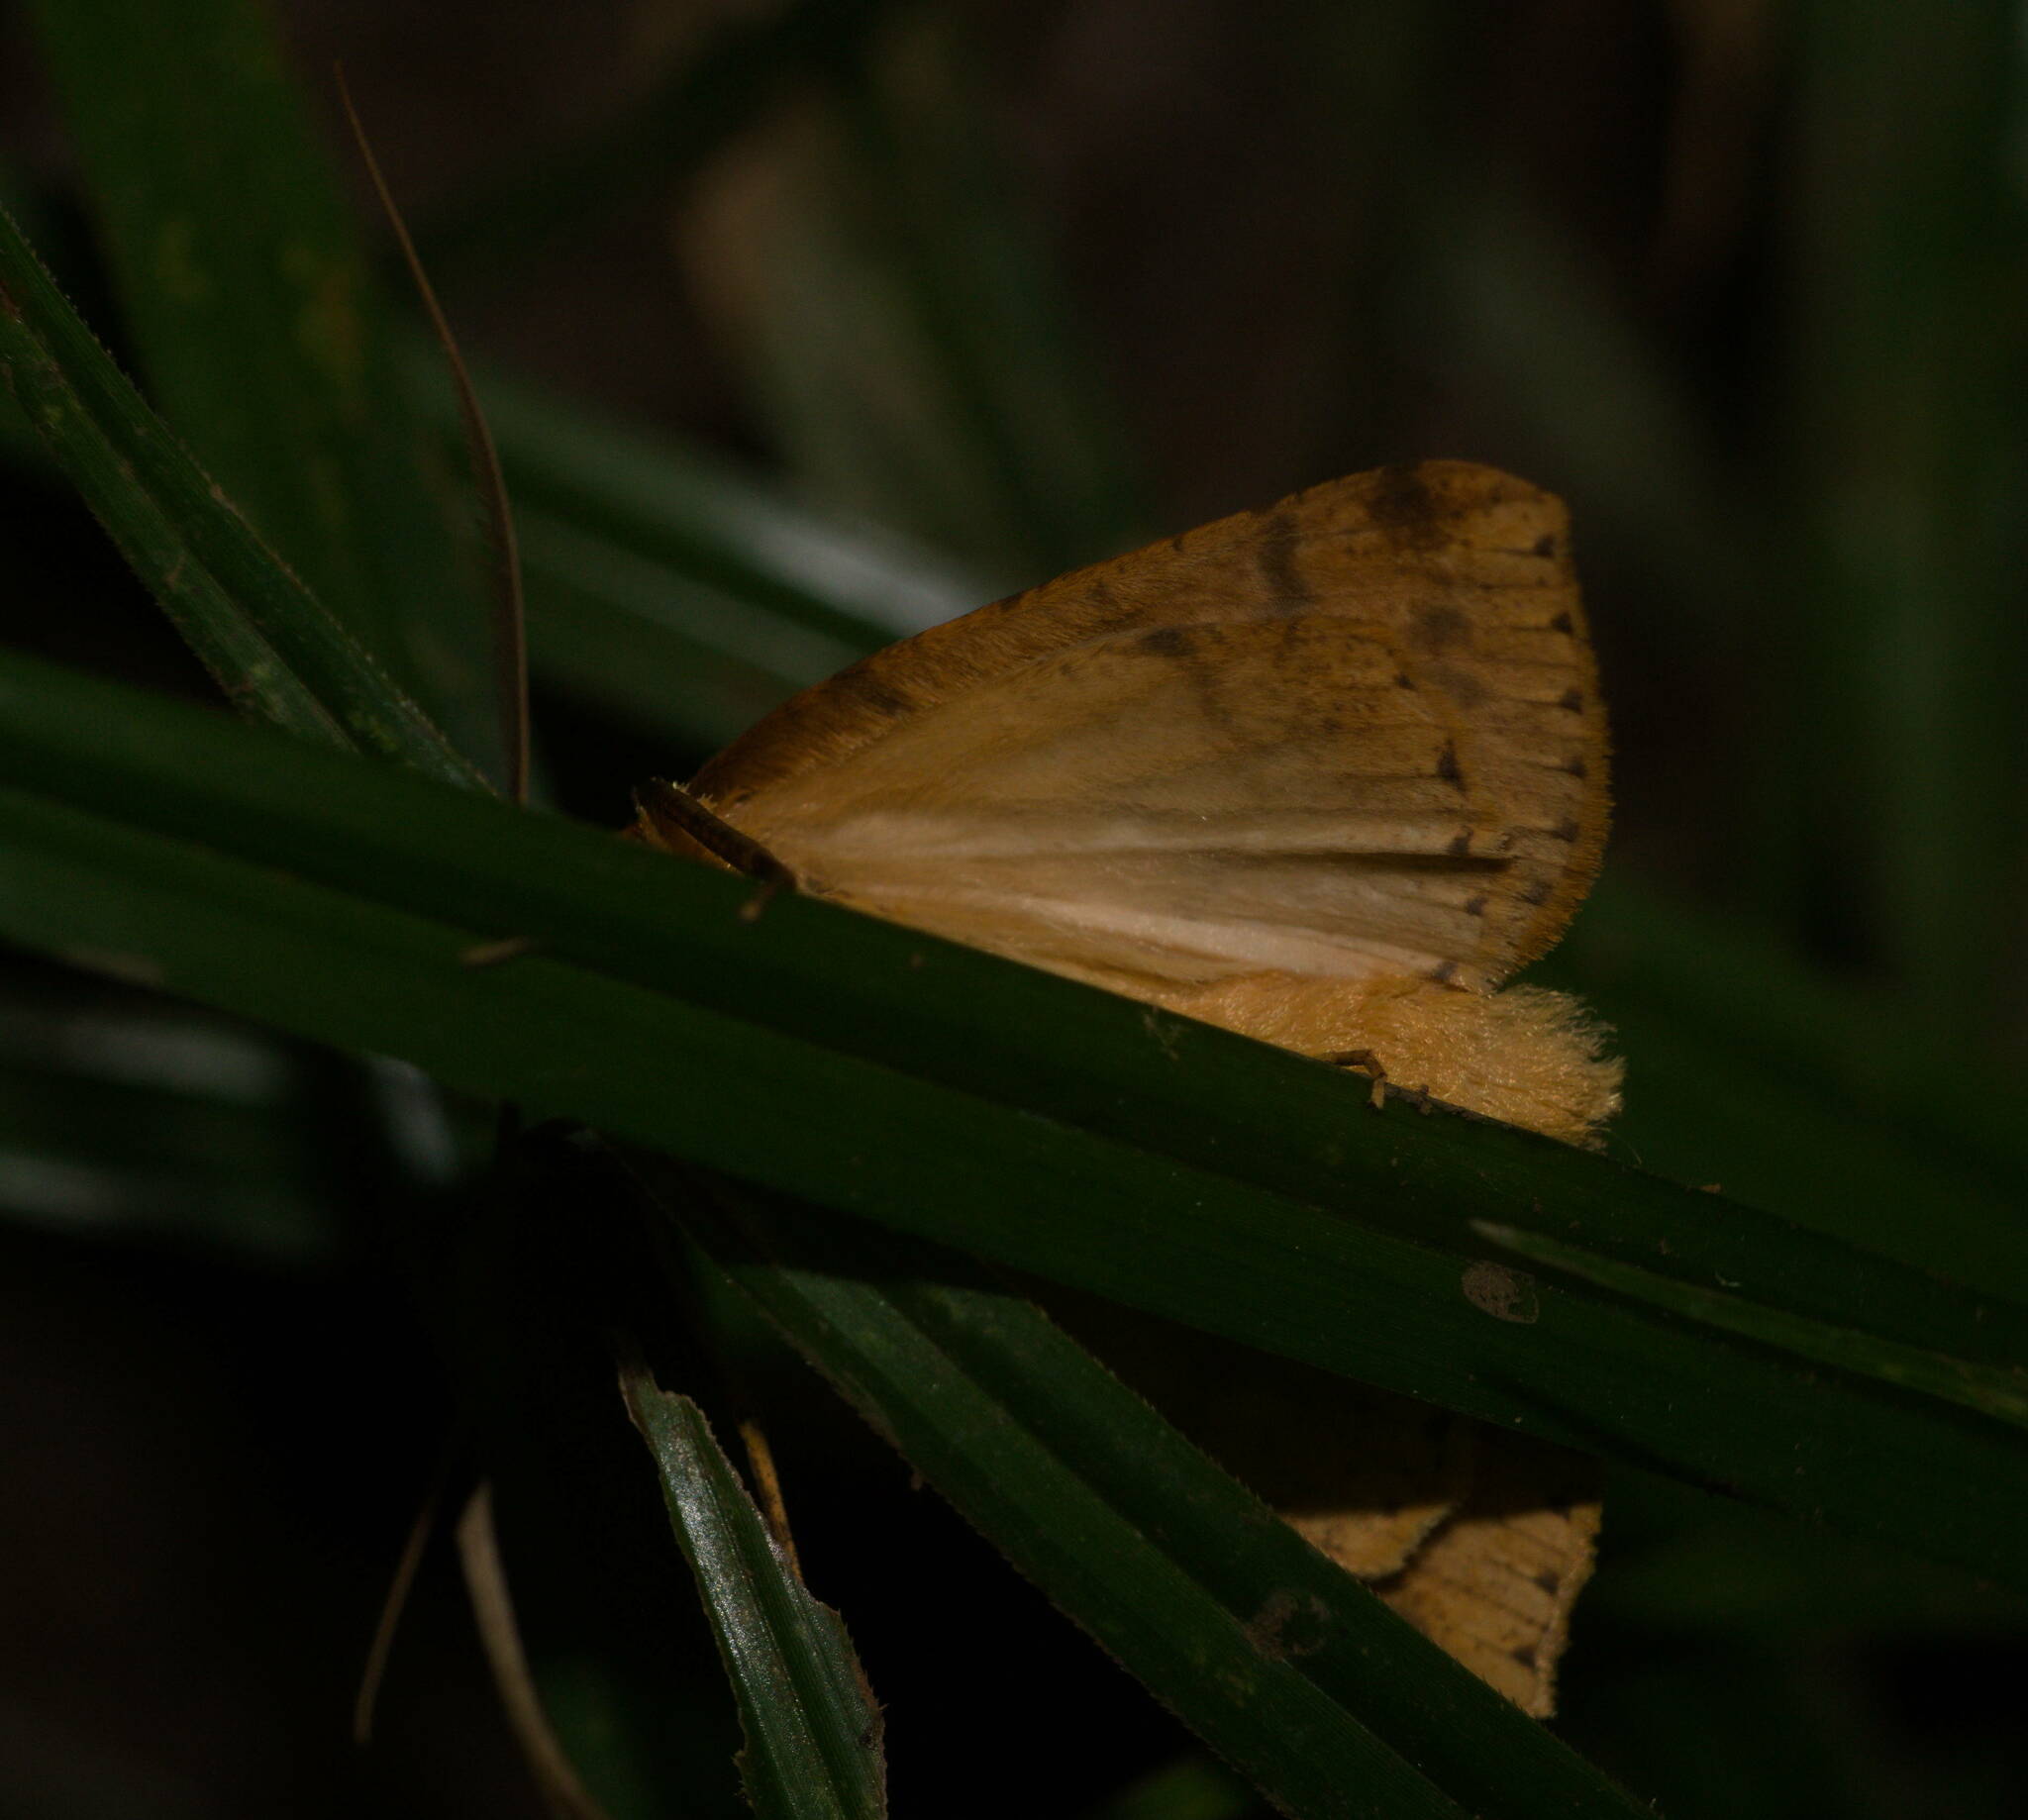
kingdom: Animalia
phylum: Arthropoda
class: Insecta
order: Lepidoptera
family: Geometridae
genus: Scotorythra
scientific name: Scotorythra epixantha
